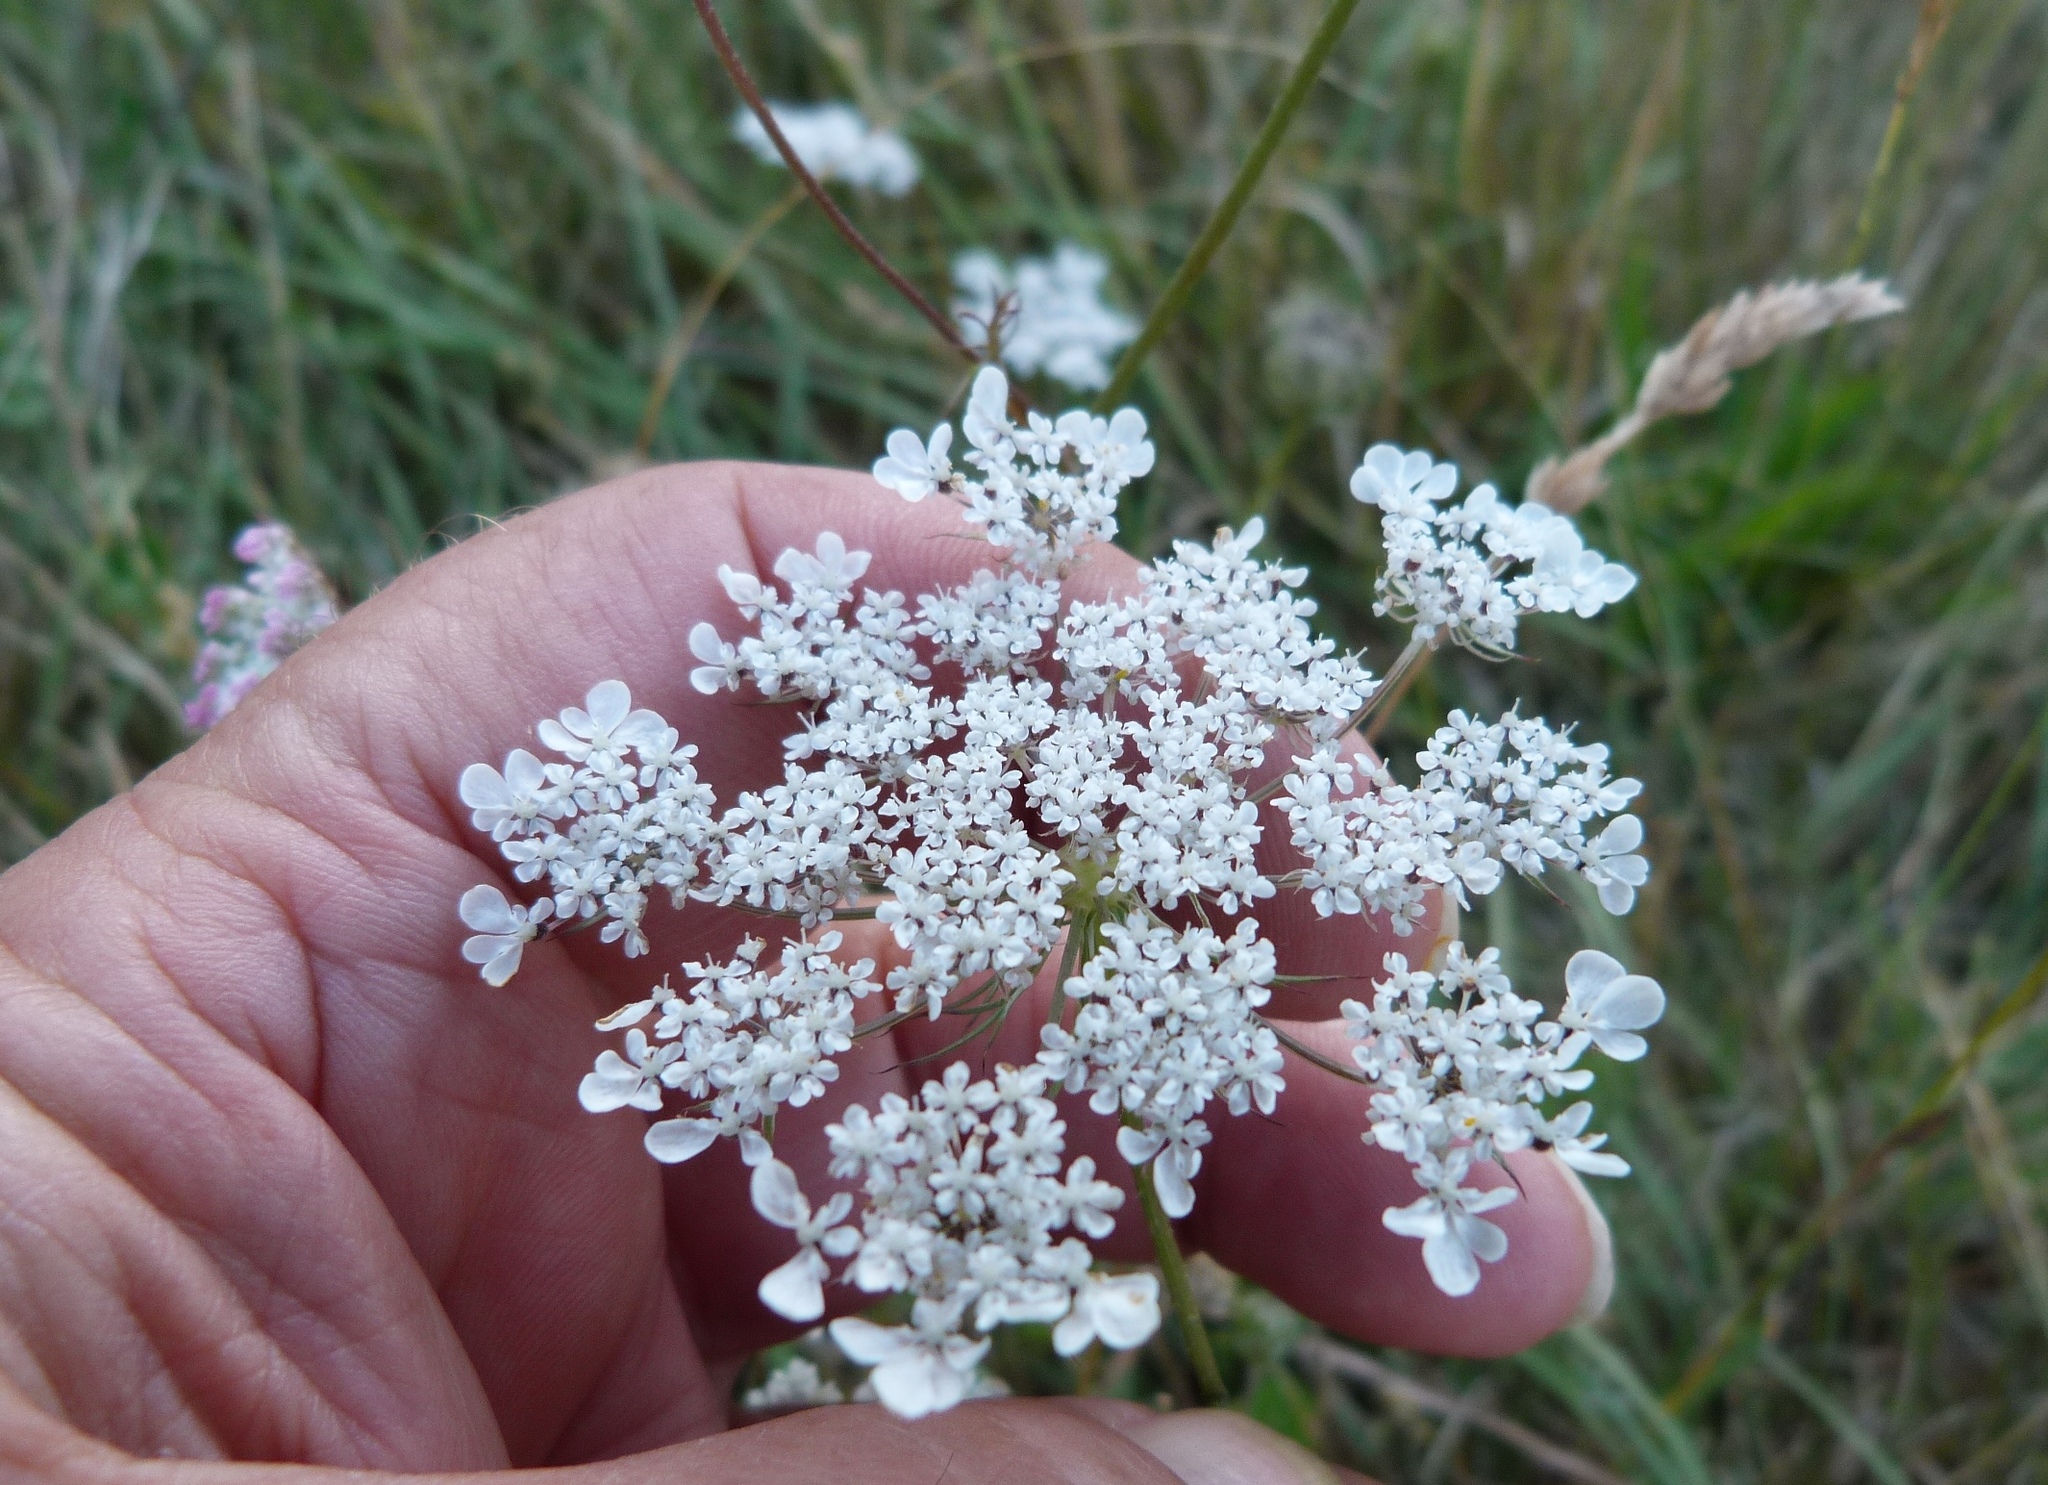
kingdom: Plantae
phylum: Tracheophyta
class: Magnoliopsida
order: Apiales
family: Apiaceae
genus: Daucus
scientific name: Daucus carota
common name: Wild carrot
